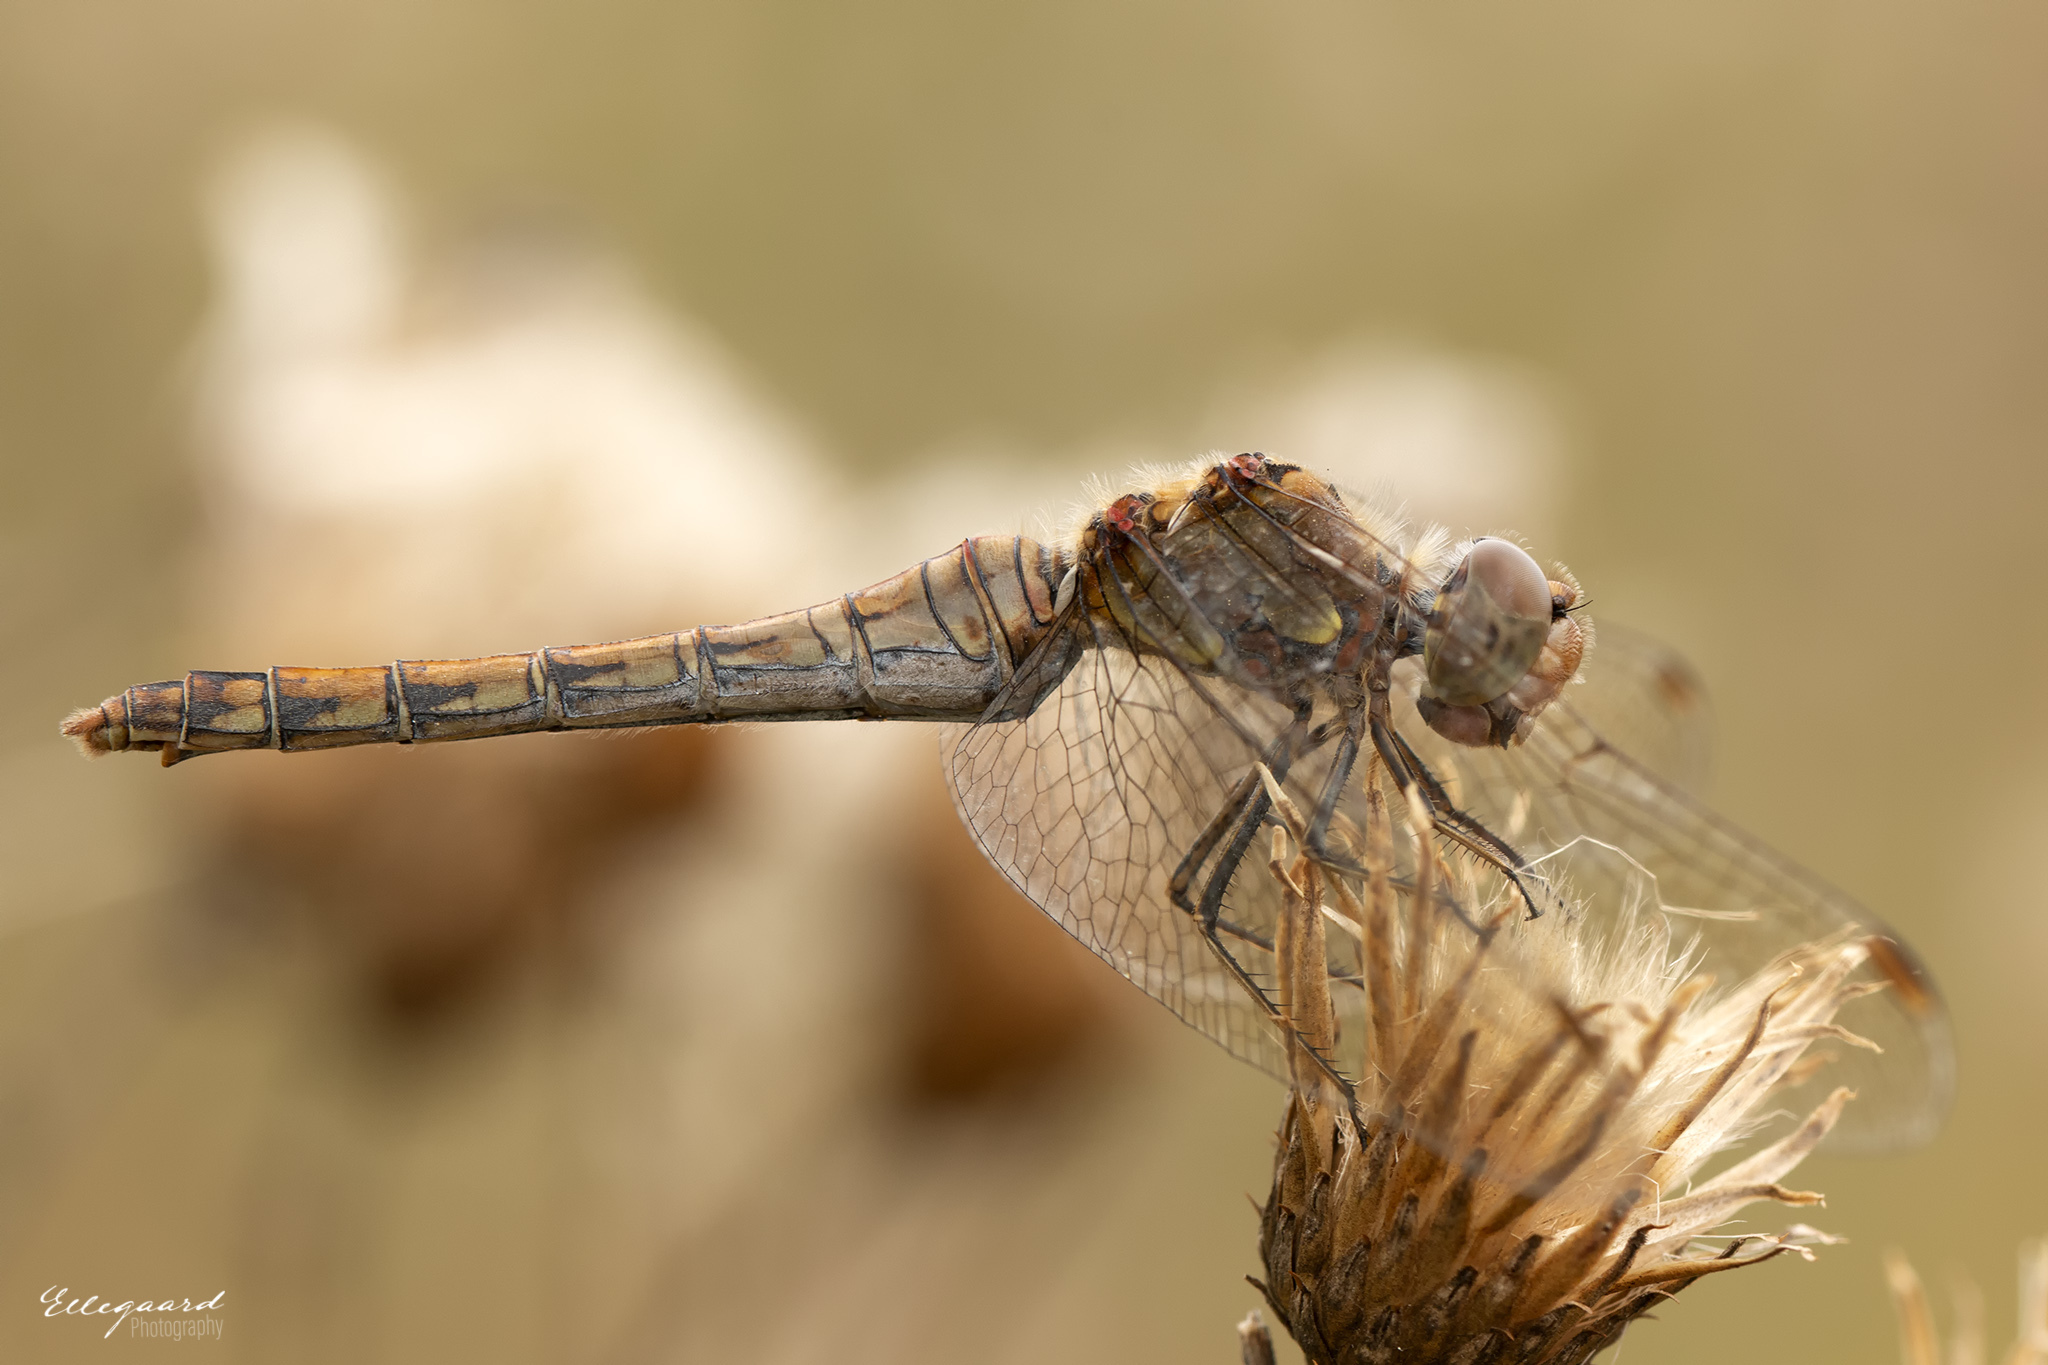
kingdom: Animalia
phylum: Arthropoda
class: Insecta
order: Odonata
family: Libellulidae
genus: Sympetrum
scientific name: Sympetrum striolatum
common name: Common darter
